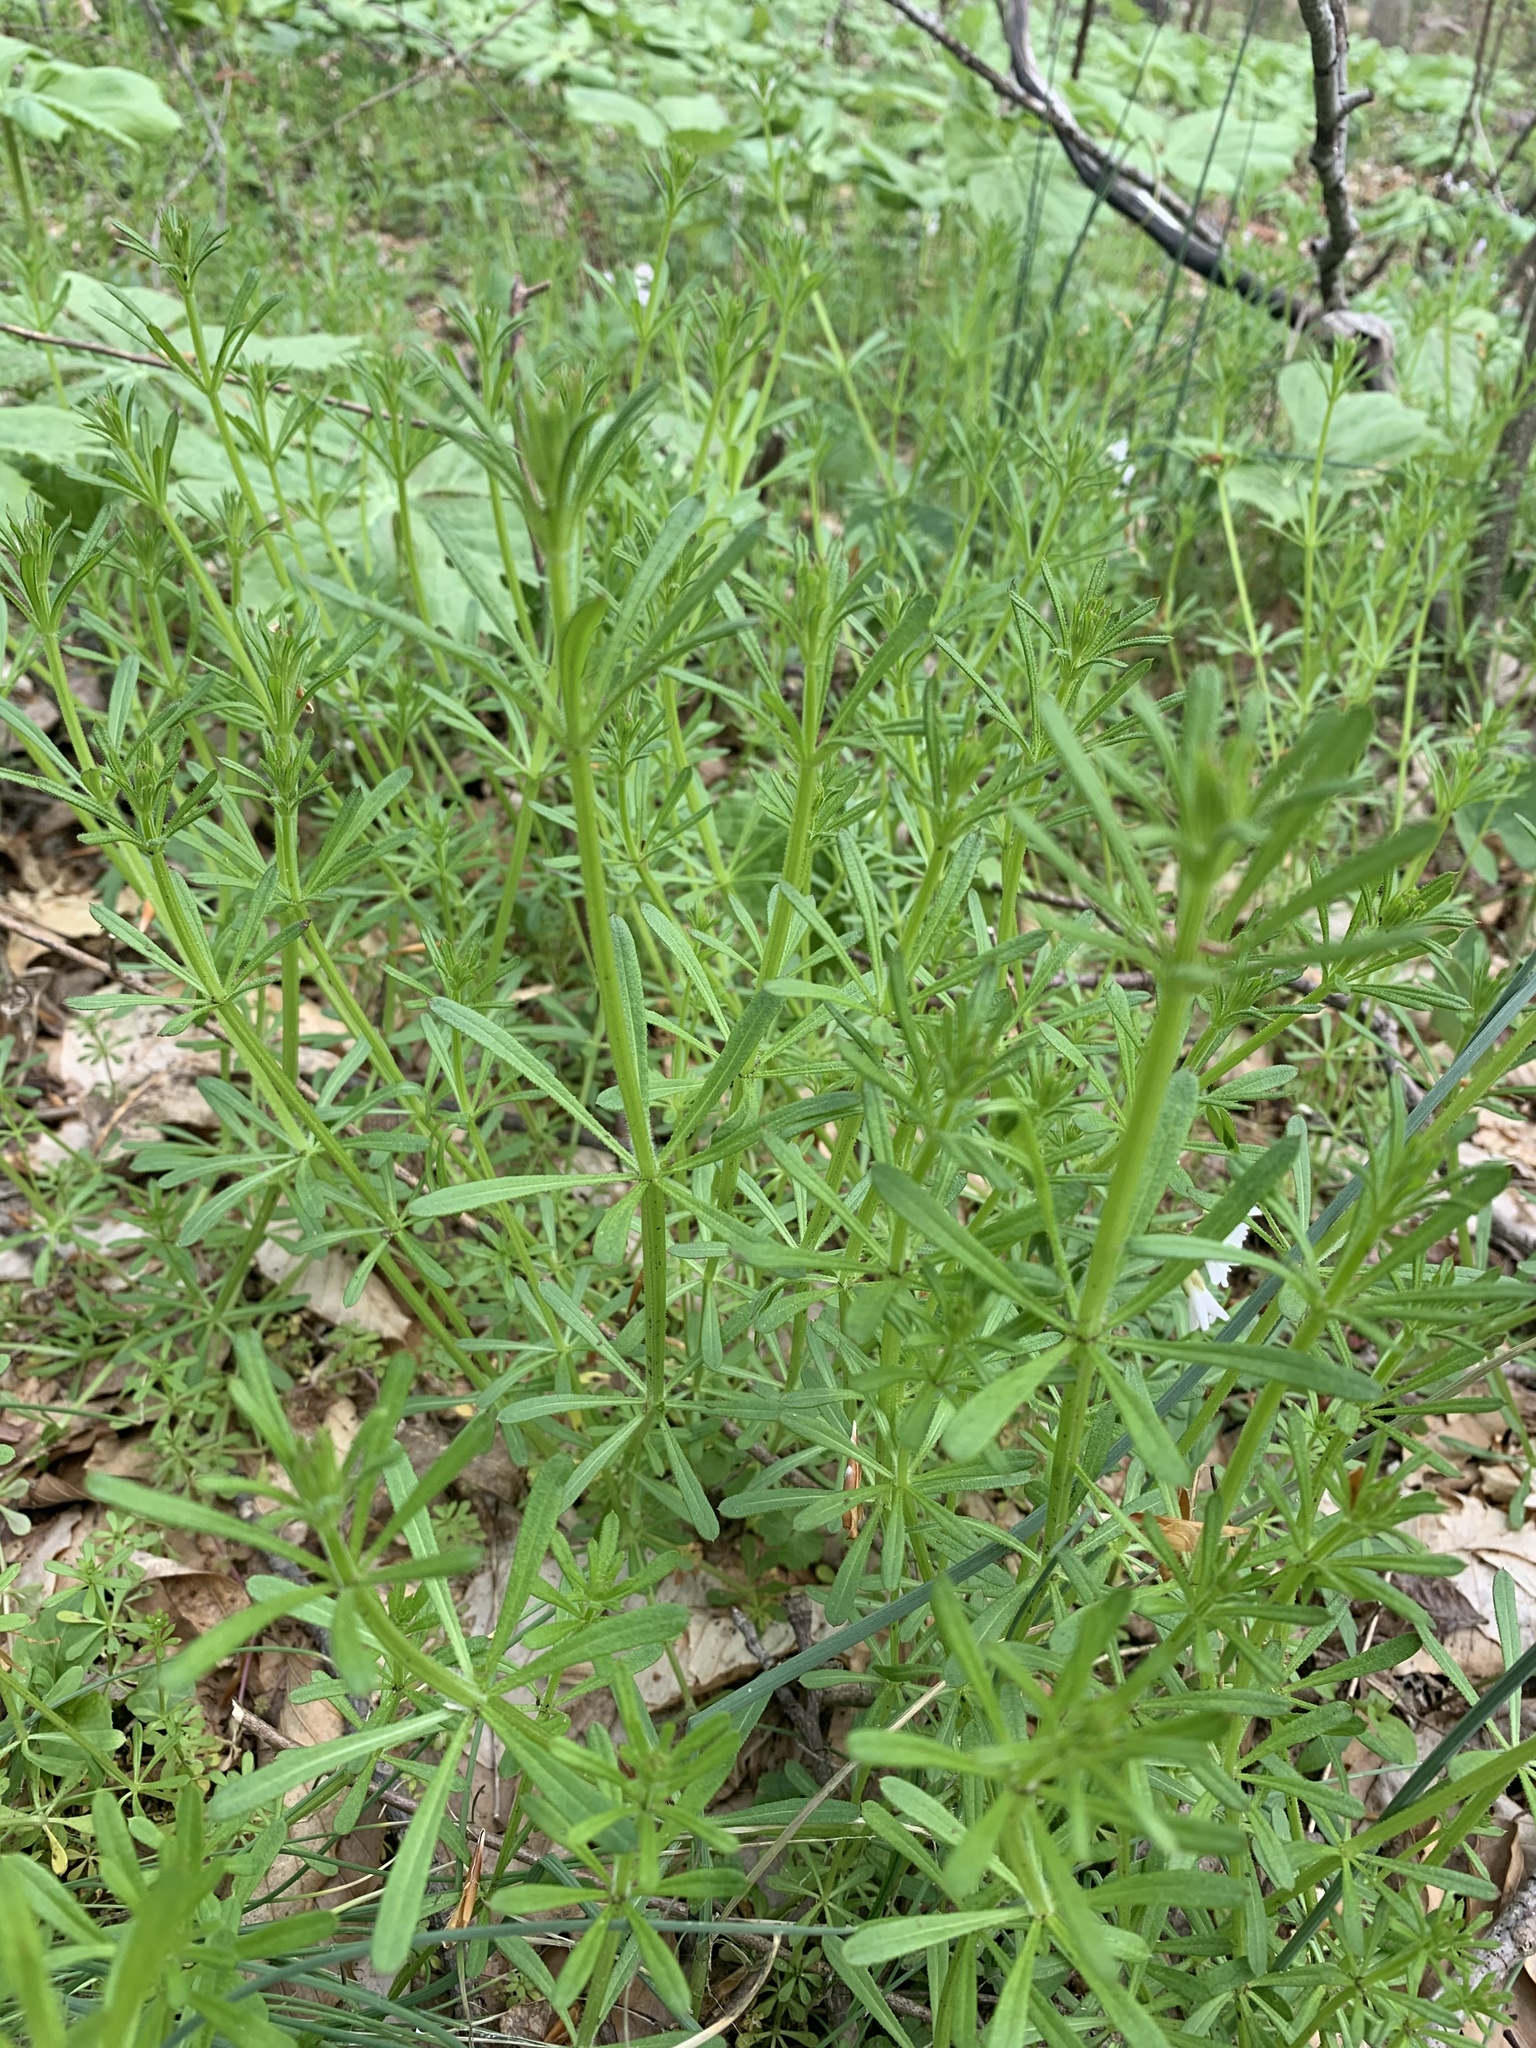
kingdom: Plantae
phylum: Tracheophyta
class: Magnoliopsida
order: Gentianales
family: Rubiaceae
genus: Galium
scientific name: Galium aparine
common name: Cleavers
